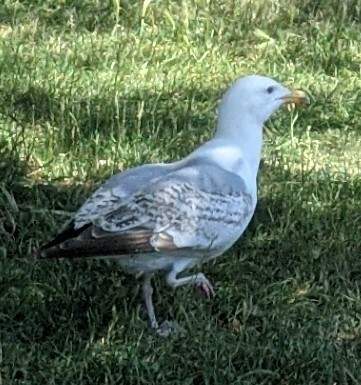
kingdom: Animalia
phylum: Chordata
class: Aves
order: Charadriiformes
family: Laridae
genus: Larus
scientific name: Larus argentatus
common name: Herring gull
